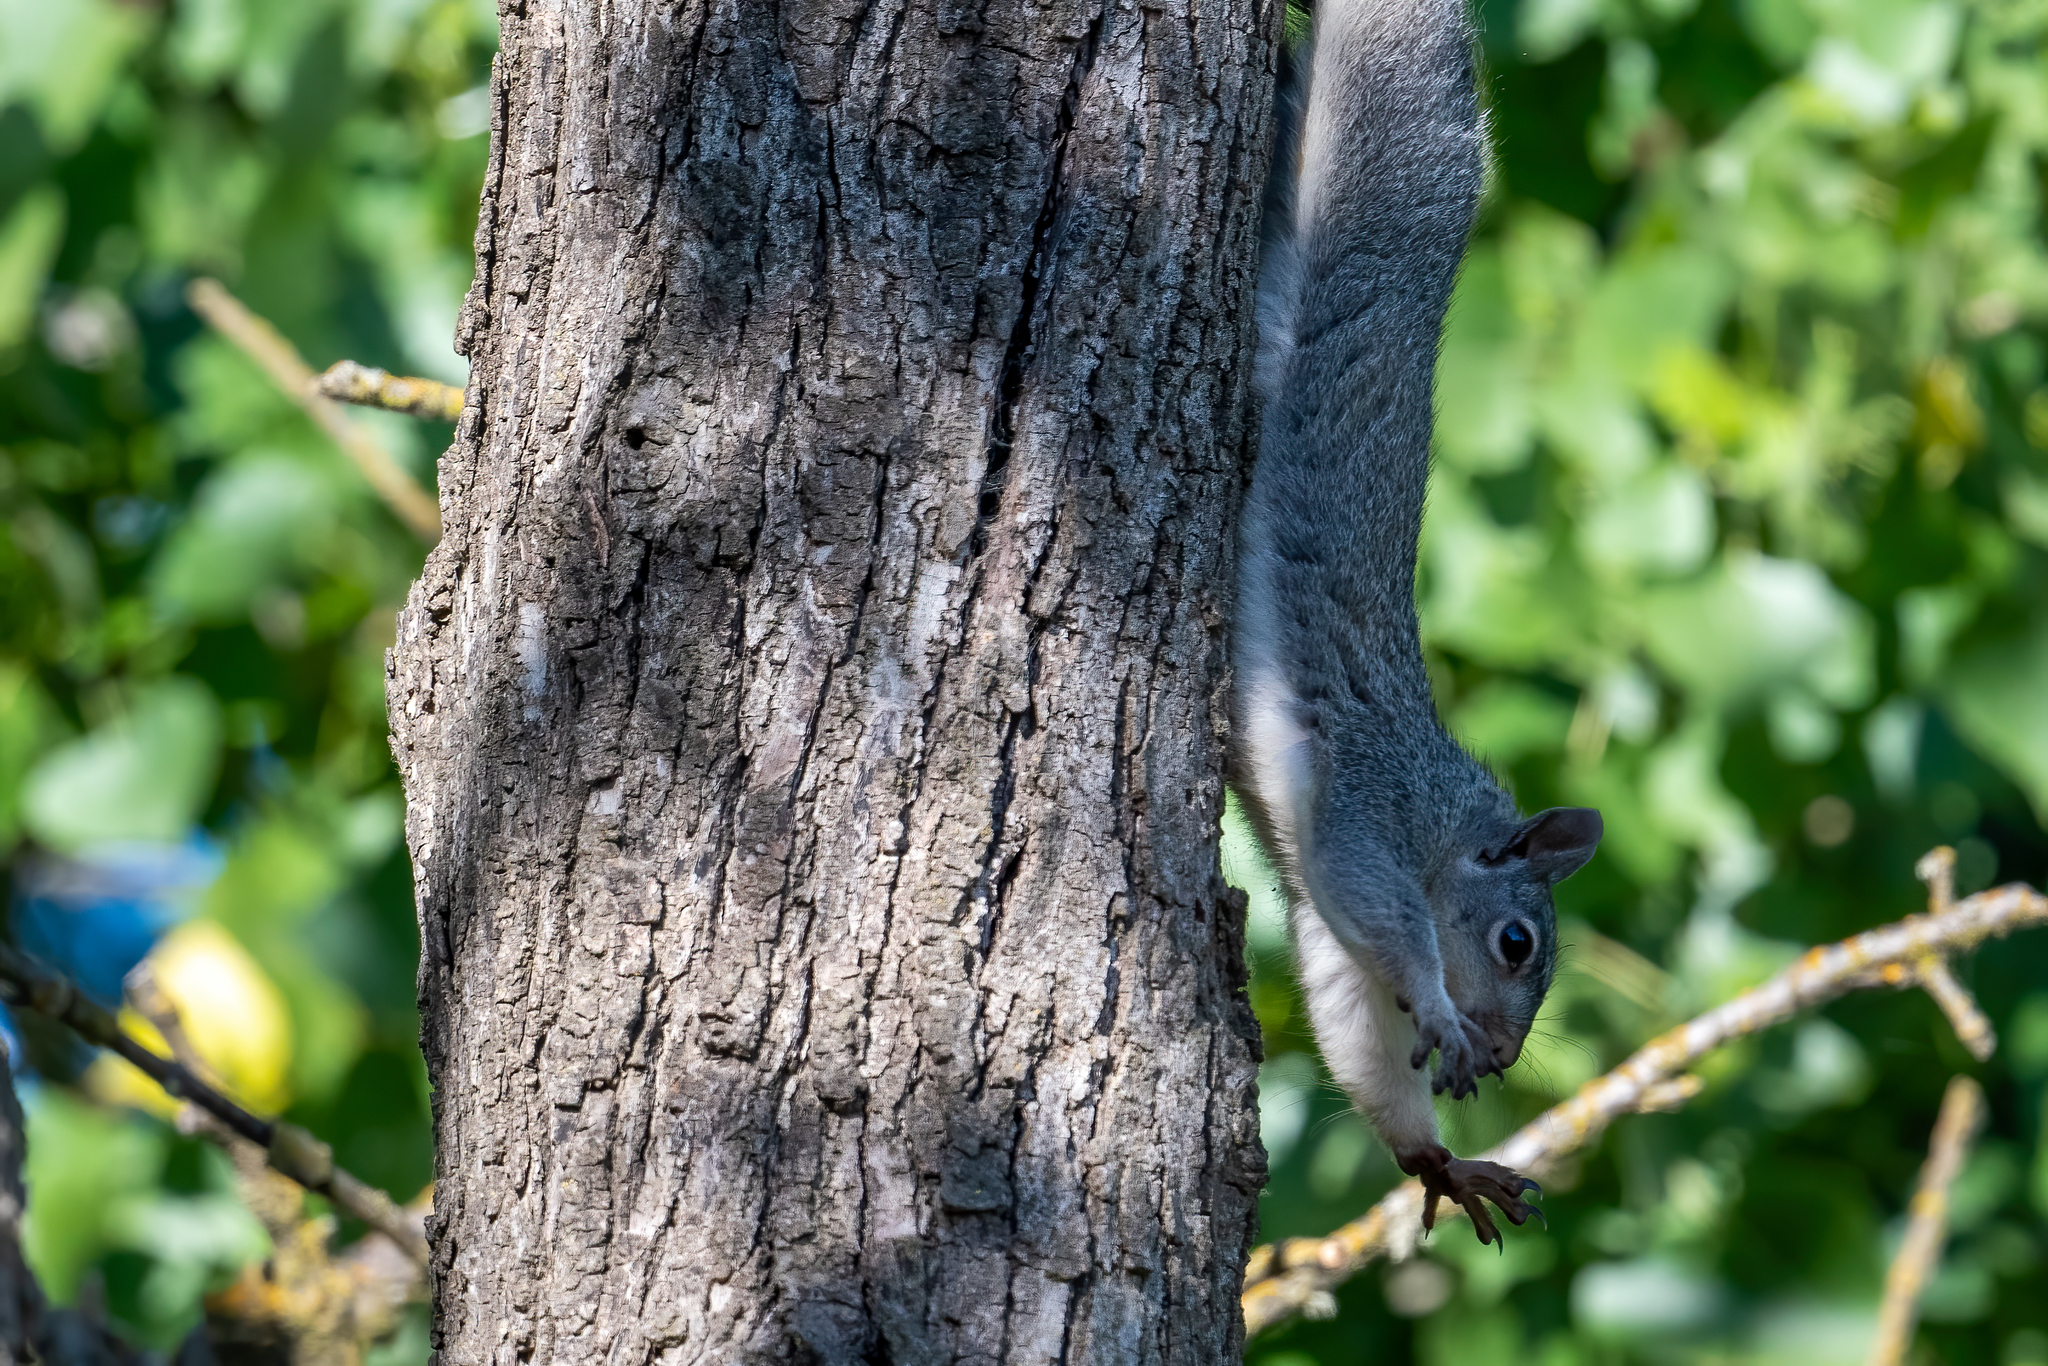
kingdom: Animalia
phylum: Chordata
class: Mammalia
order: Rodentia
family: Sciuridae
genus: Sciurus
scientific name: Sciurus griseus
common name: Western gray squirrel
